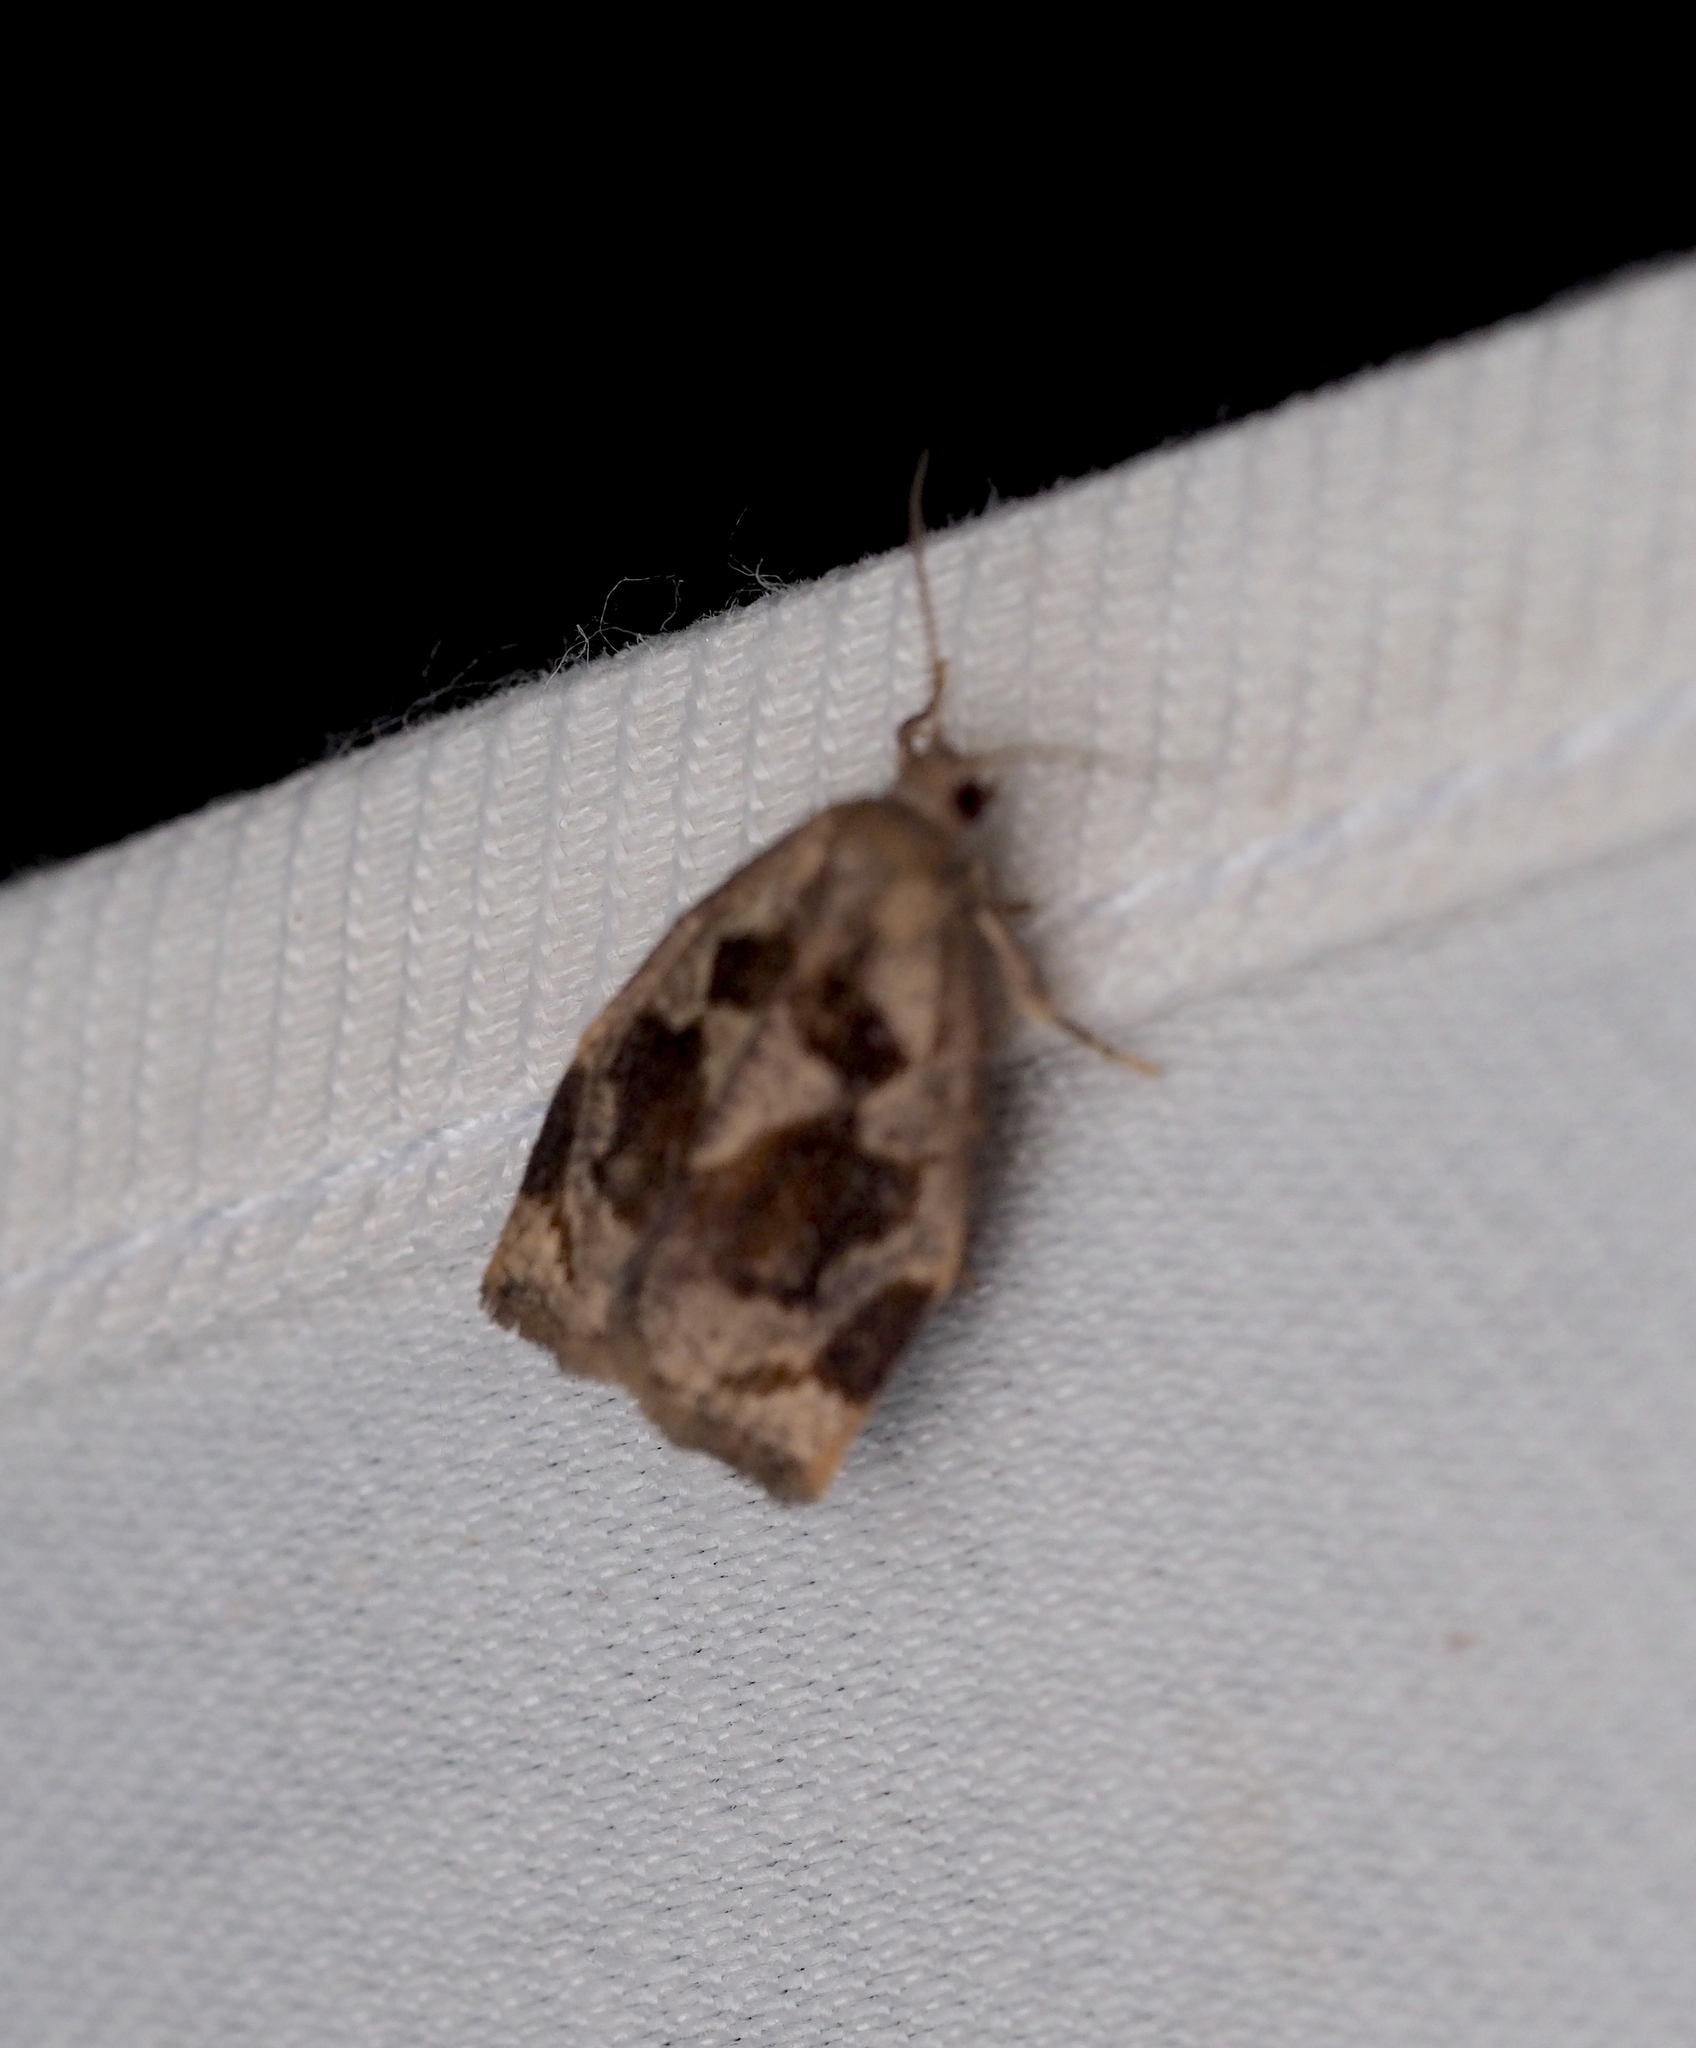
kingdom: Animalia
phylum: Arthropoda
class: Insecta
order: Lepidoptera
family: Tortricidae
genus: Archips
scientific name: Archips crataegana
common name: Brown oak tortrix
